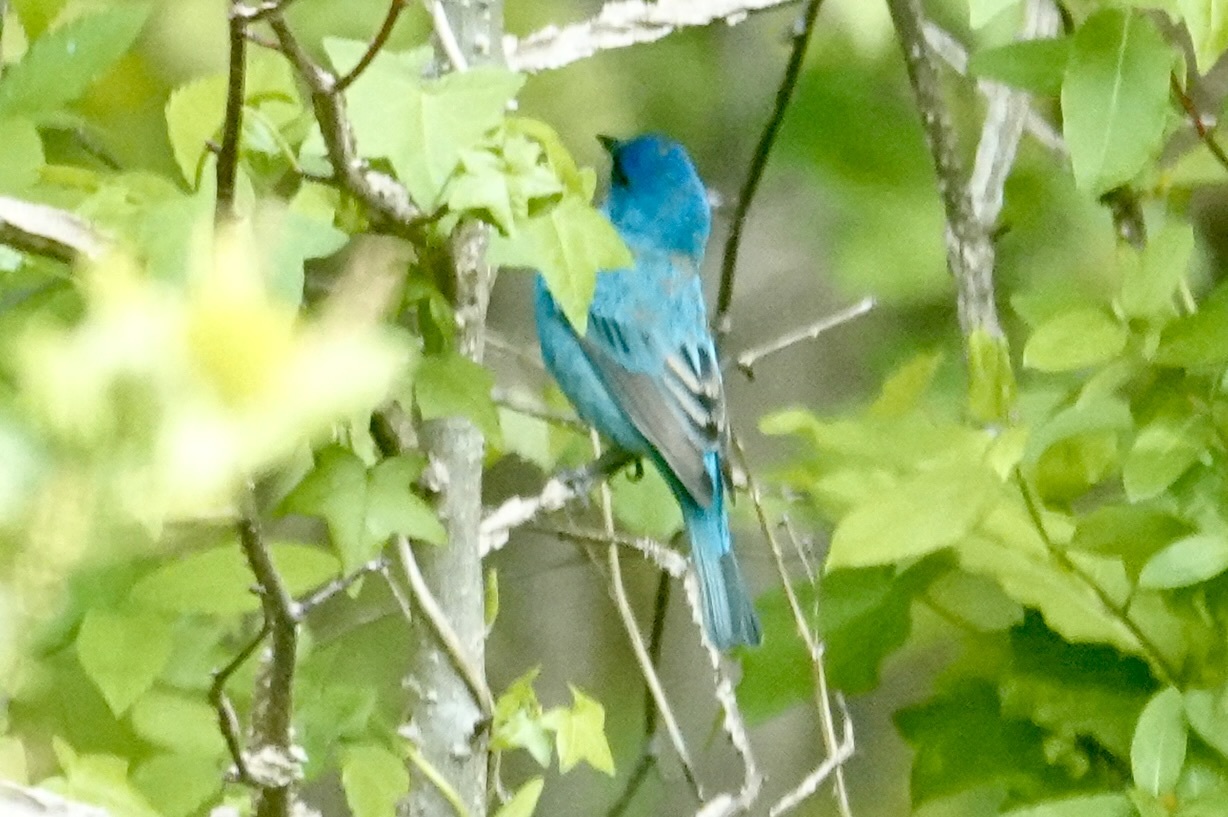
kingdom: Animalia
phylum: Chordata
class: Aves
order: Passeriformes
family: Cardinalidae
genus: Passerina
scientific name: Passerina cyanea
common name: Indigo bunting
